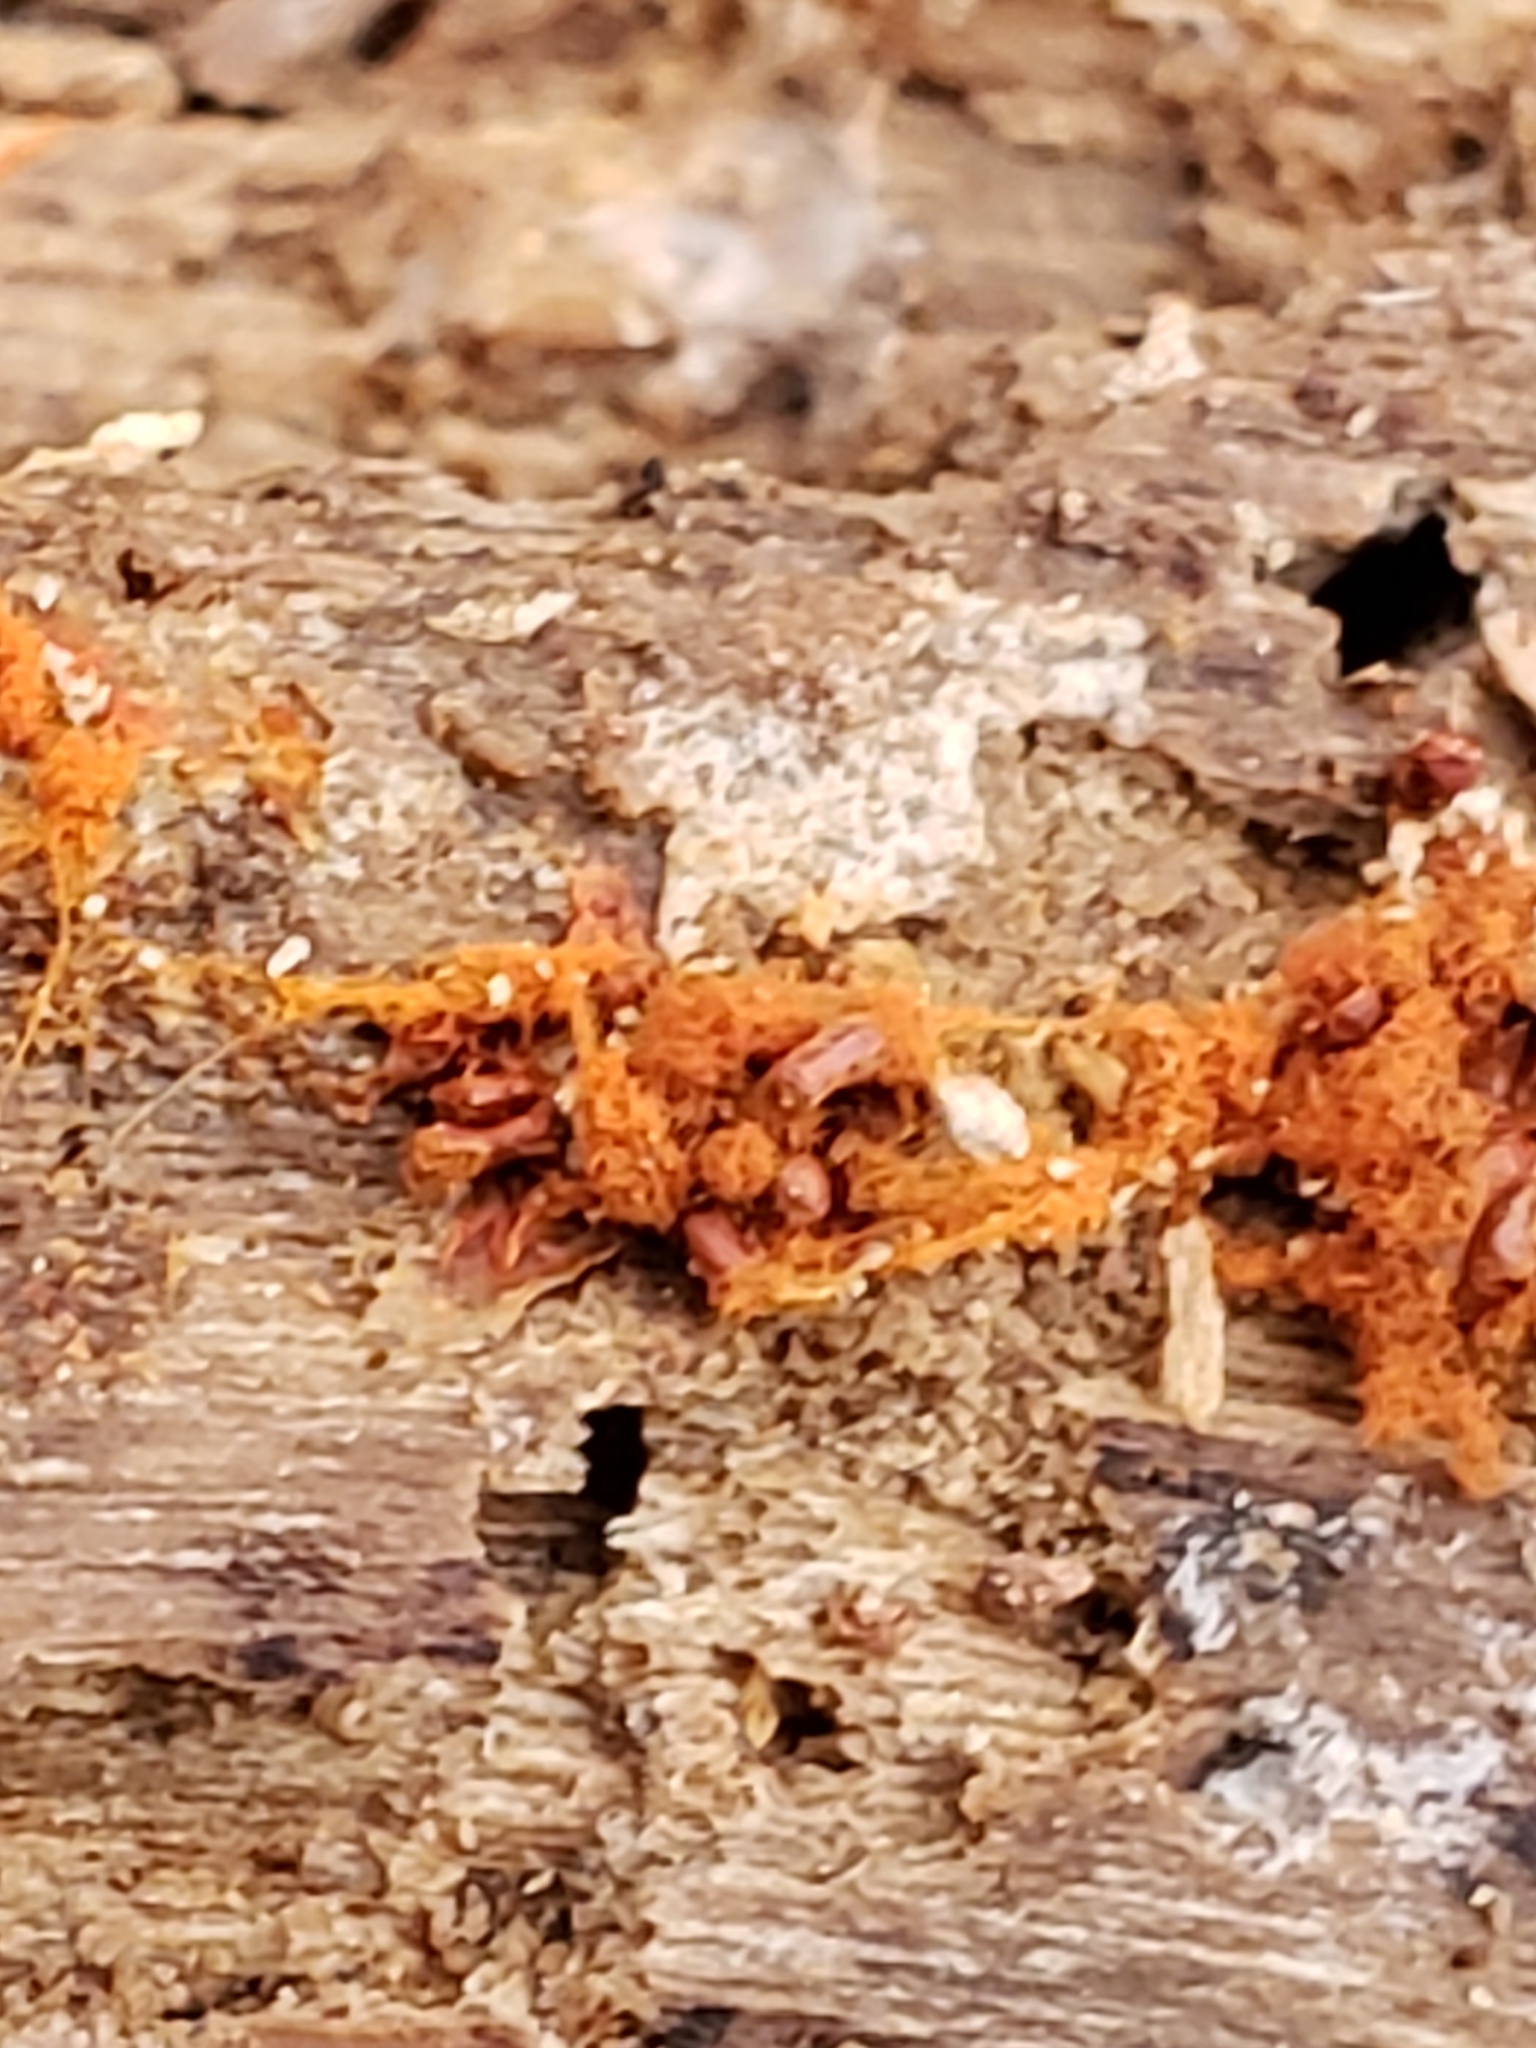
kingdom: Protozoa
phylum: Mycetozoa
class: Myxomycetes
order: Trichiales
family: Trichiaceae
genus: Metatrichia
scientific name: Metatrichia vesparia
